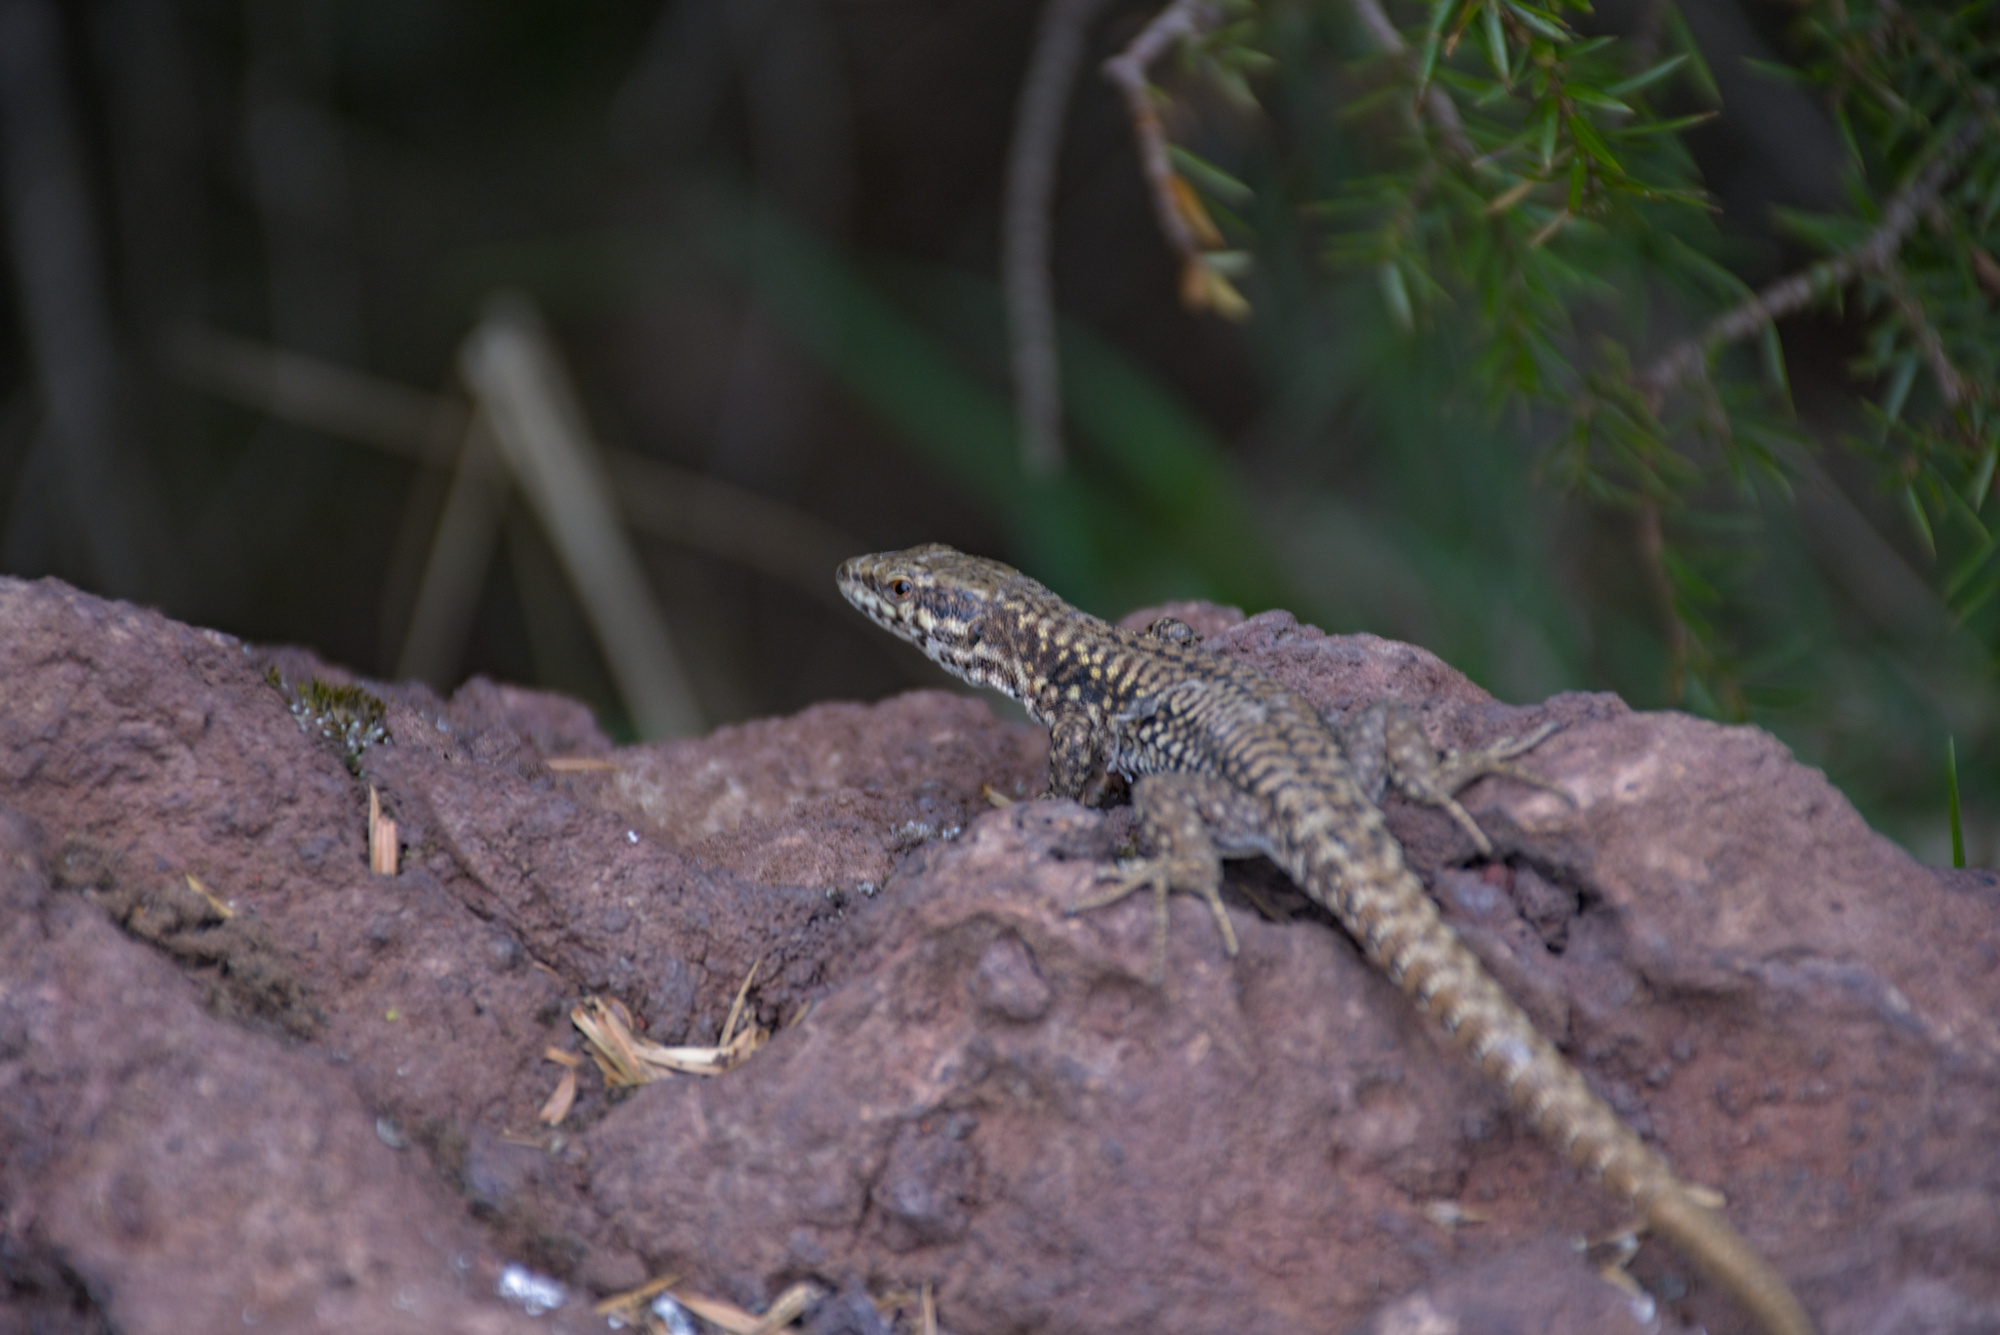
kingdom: Animalia
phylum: Chordata
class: Squamata
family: Lacertidae
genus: Podarcis
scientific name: Podarcis muralis
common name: Common wall lizard
